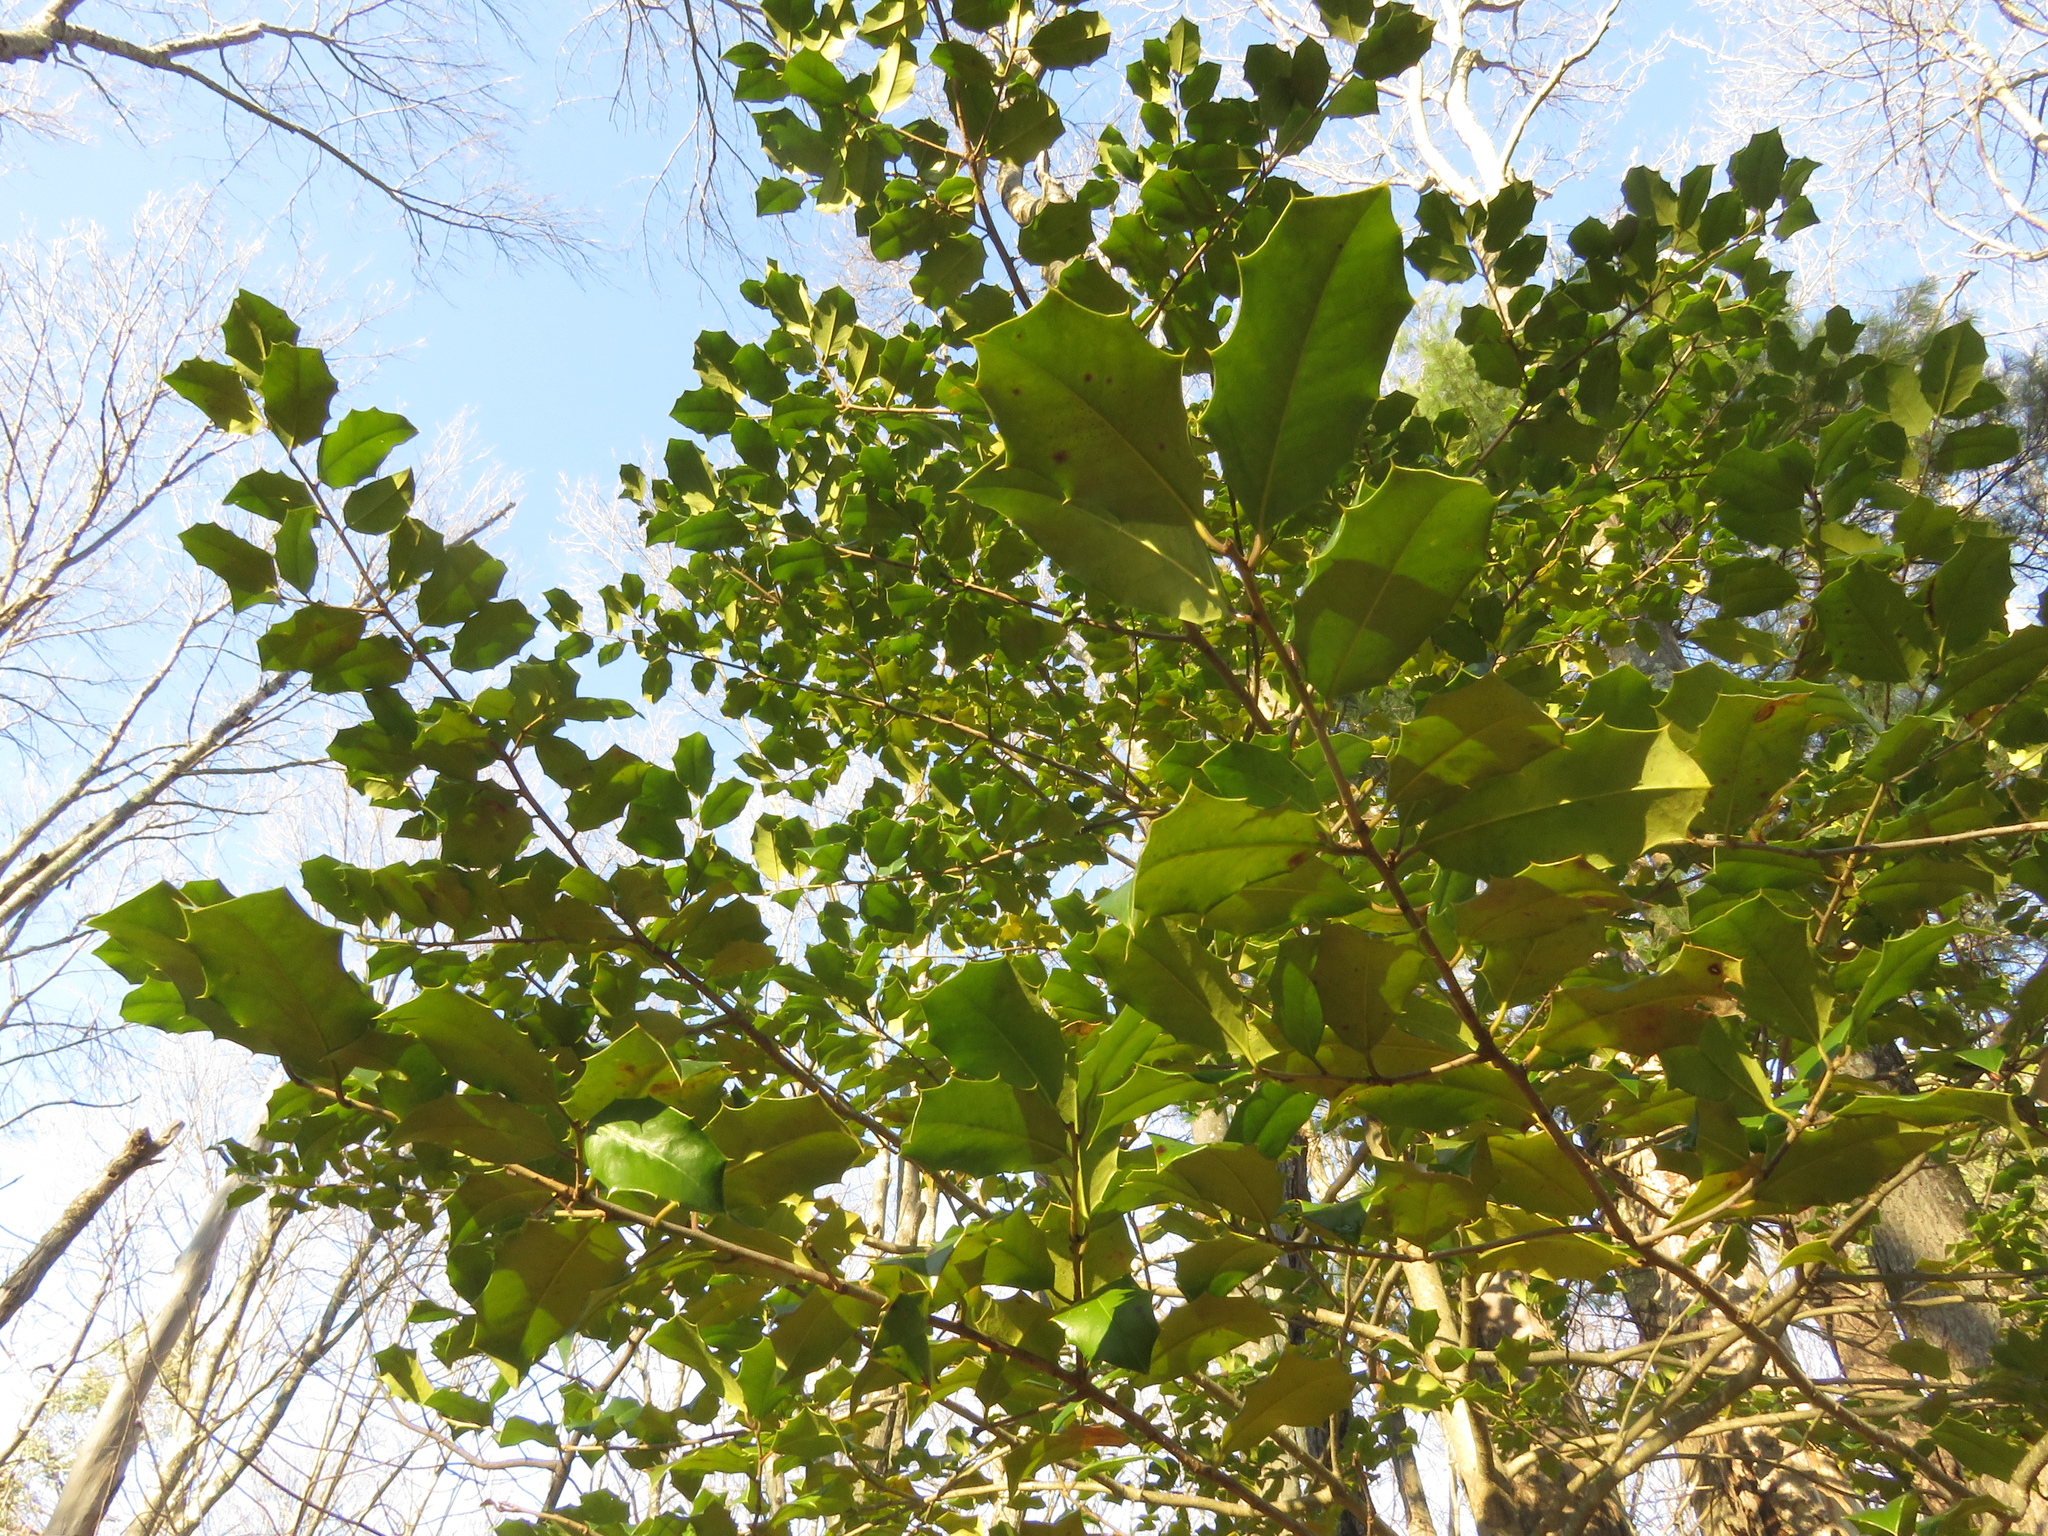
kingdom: Plantae
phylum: Tracheophyta
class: Magnoliopsida
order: Aquifoliales
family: Aquifoliaceae
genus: Ilex
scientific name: Ilex opaca
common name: American holly
